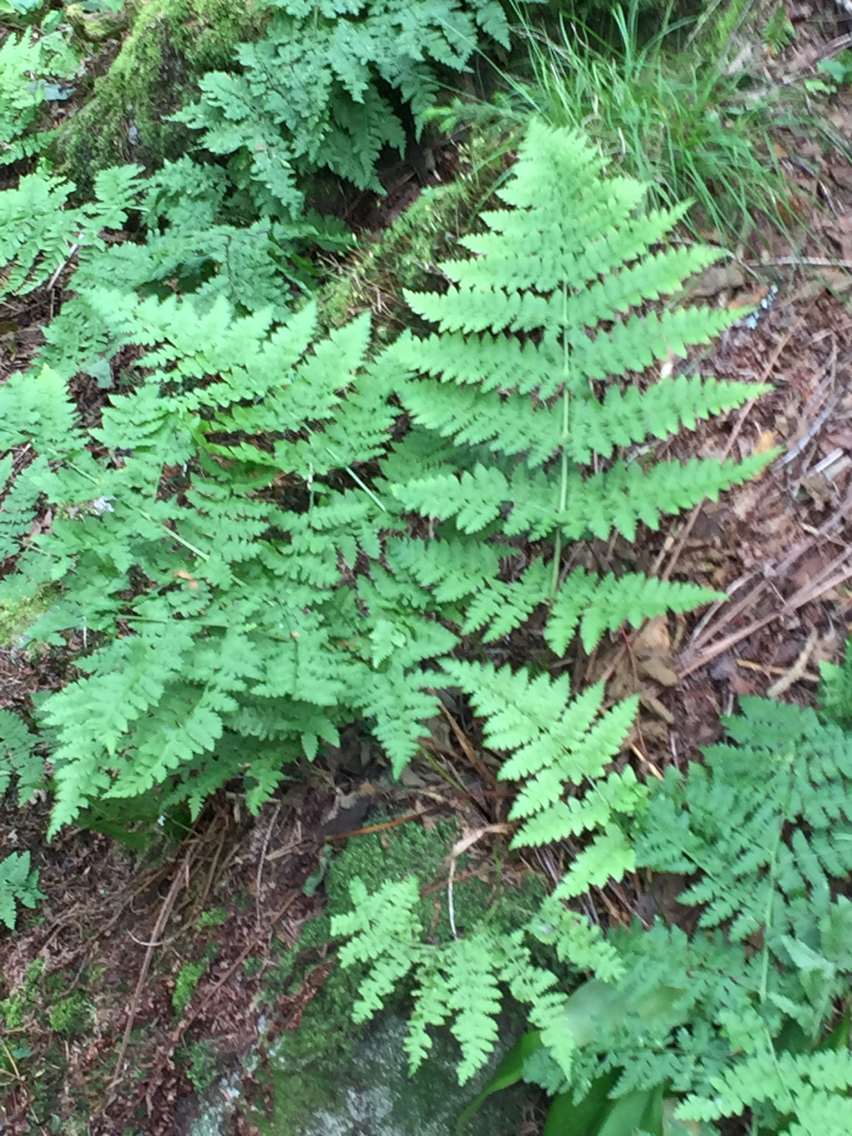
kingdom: Plantae
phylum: Tracheophyta
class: Polypodiopsida
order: Polypodiales
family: Dryopteridaceae
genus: Dryopteris
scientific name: Dryopteris campyloptera
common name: Mountain wood fern
